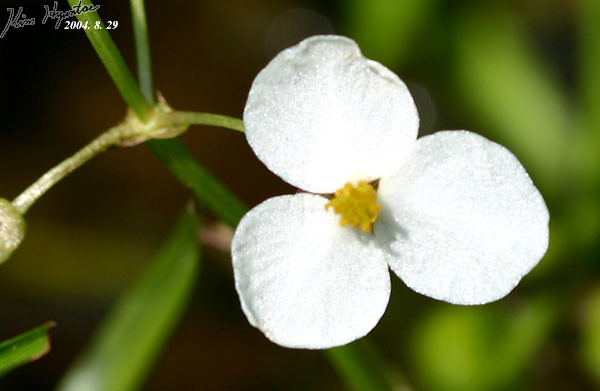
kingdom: Plantae
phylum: Tracheophyta
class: Liliopsida
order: Alismatales
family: Alismataceae
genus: Sagittaria
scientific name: Sagittaria aginashi
